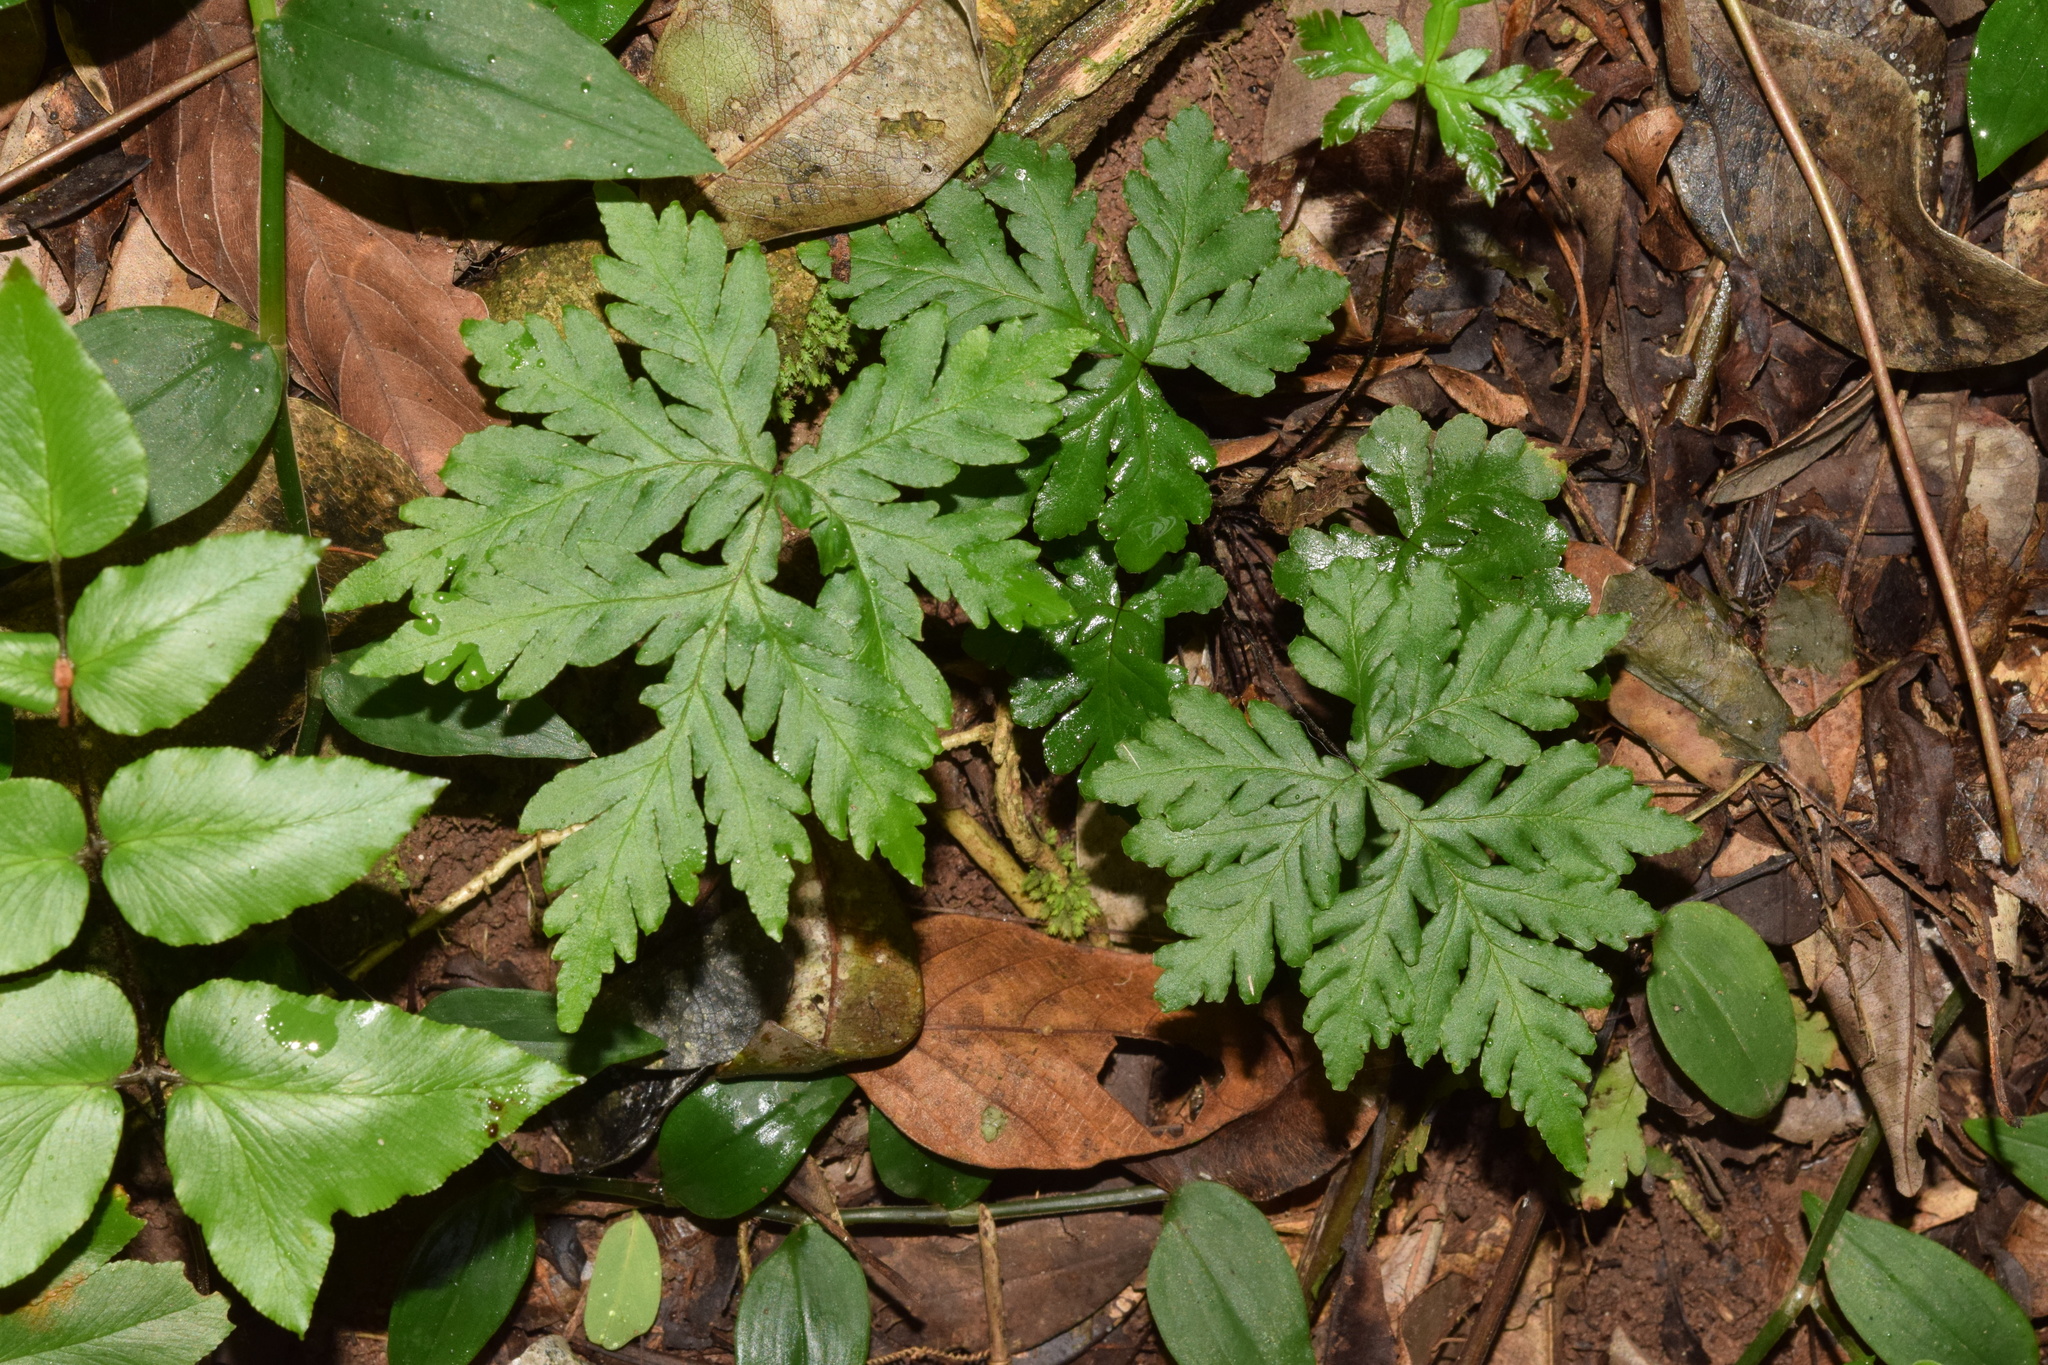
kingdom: Plantae
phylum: Tracheophyta
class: Polypodiopsida
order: Polypodiales
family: Pteridaceae
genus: Doryopteris
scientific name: Doryopteris concolor
